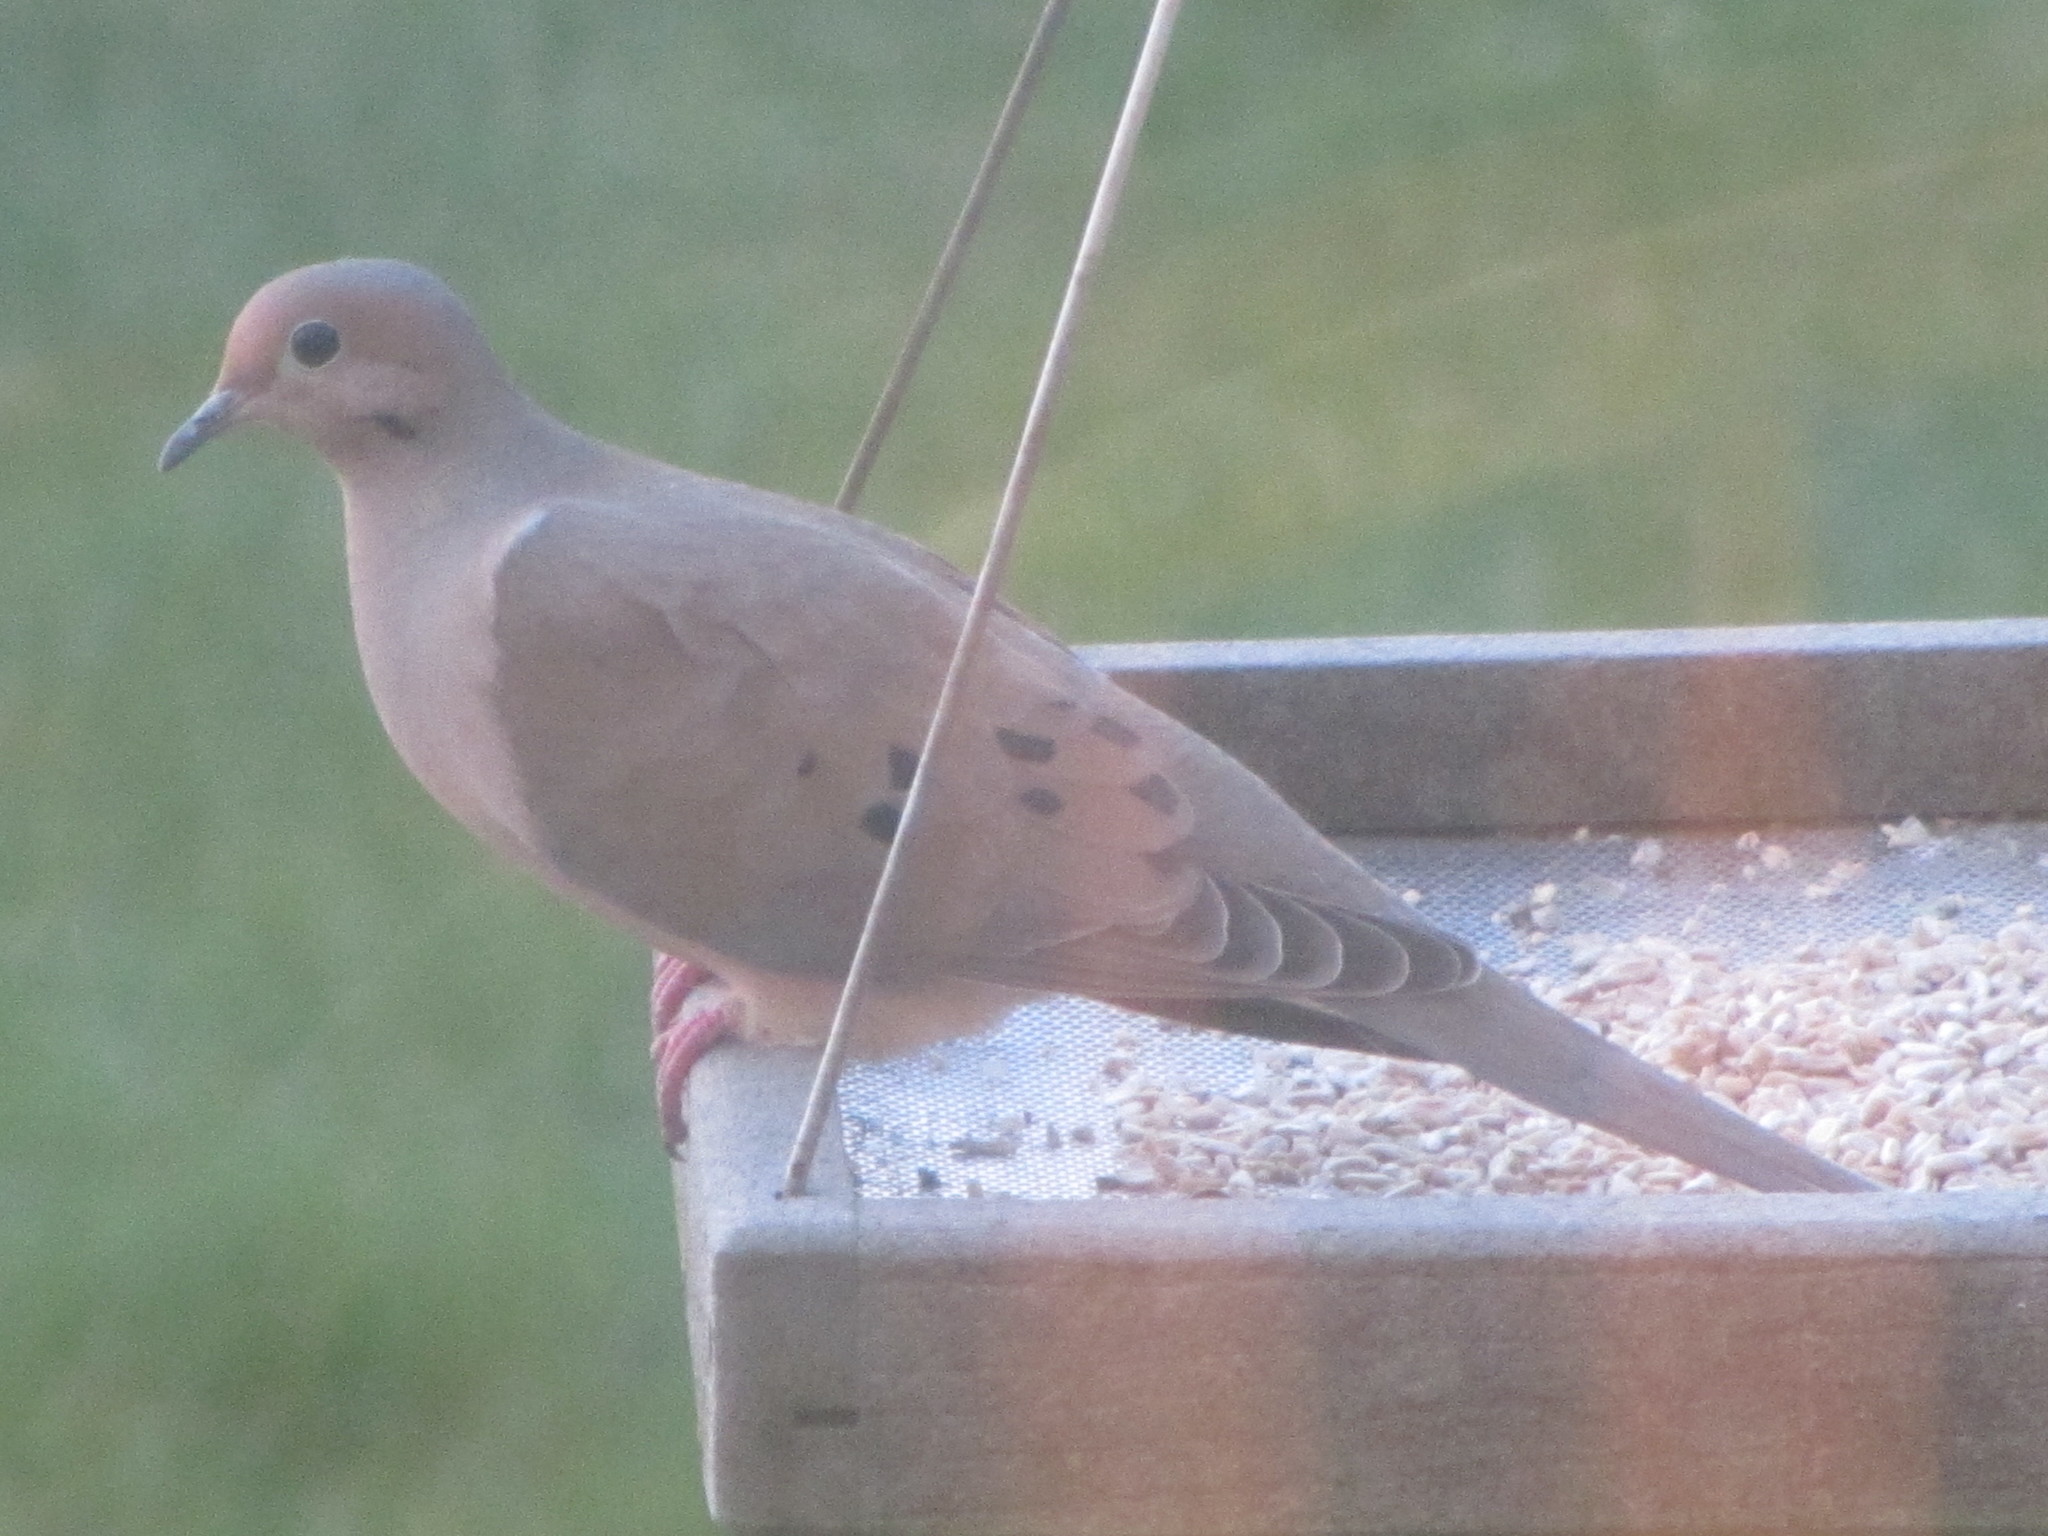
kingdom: Animalia
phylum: Chordata
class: Aves
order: Columbiformes
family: Columbidae
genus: Zenaida
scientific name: Zenaida macroura
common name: Mourning dove
